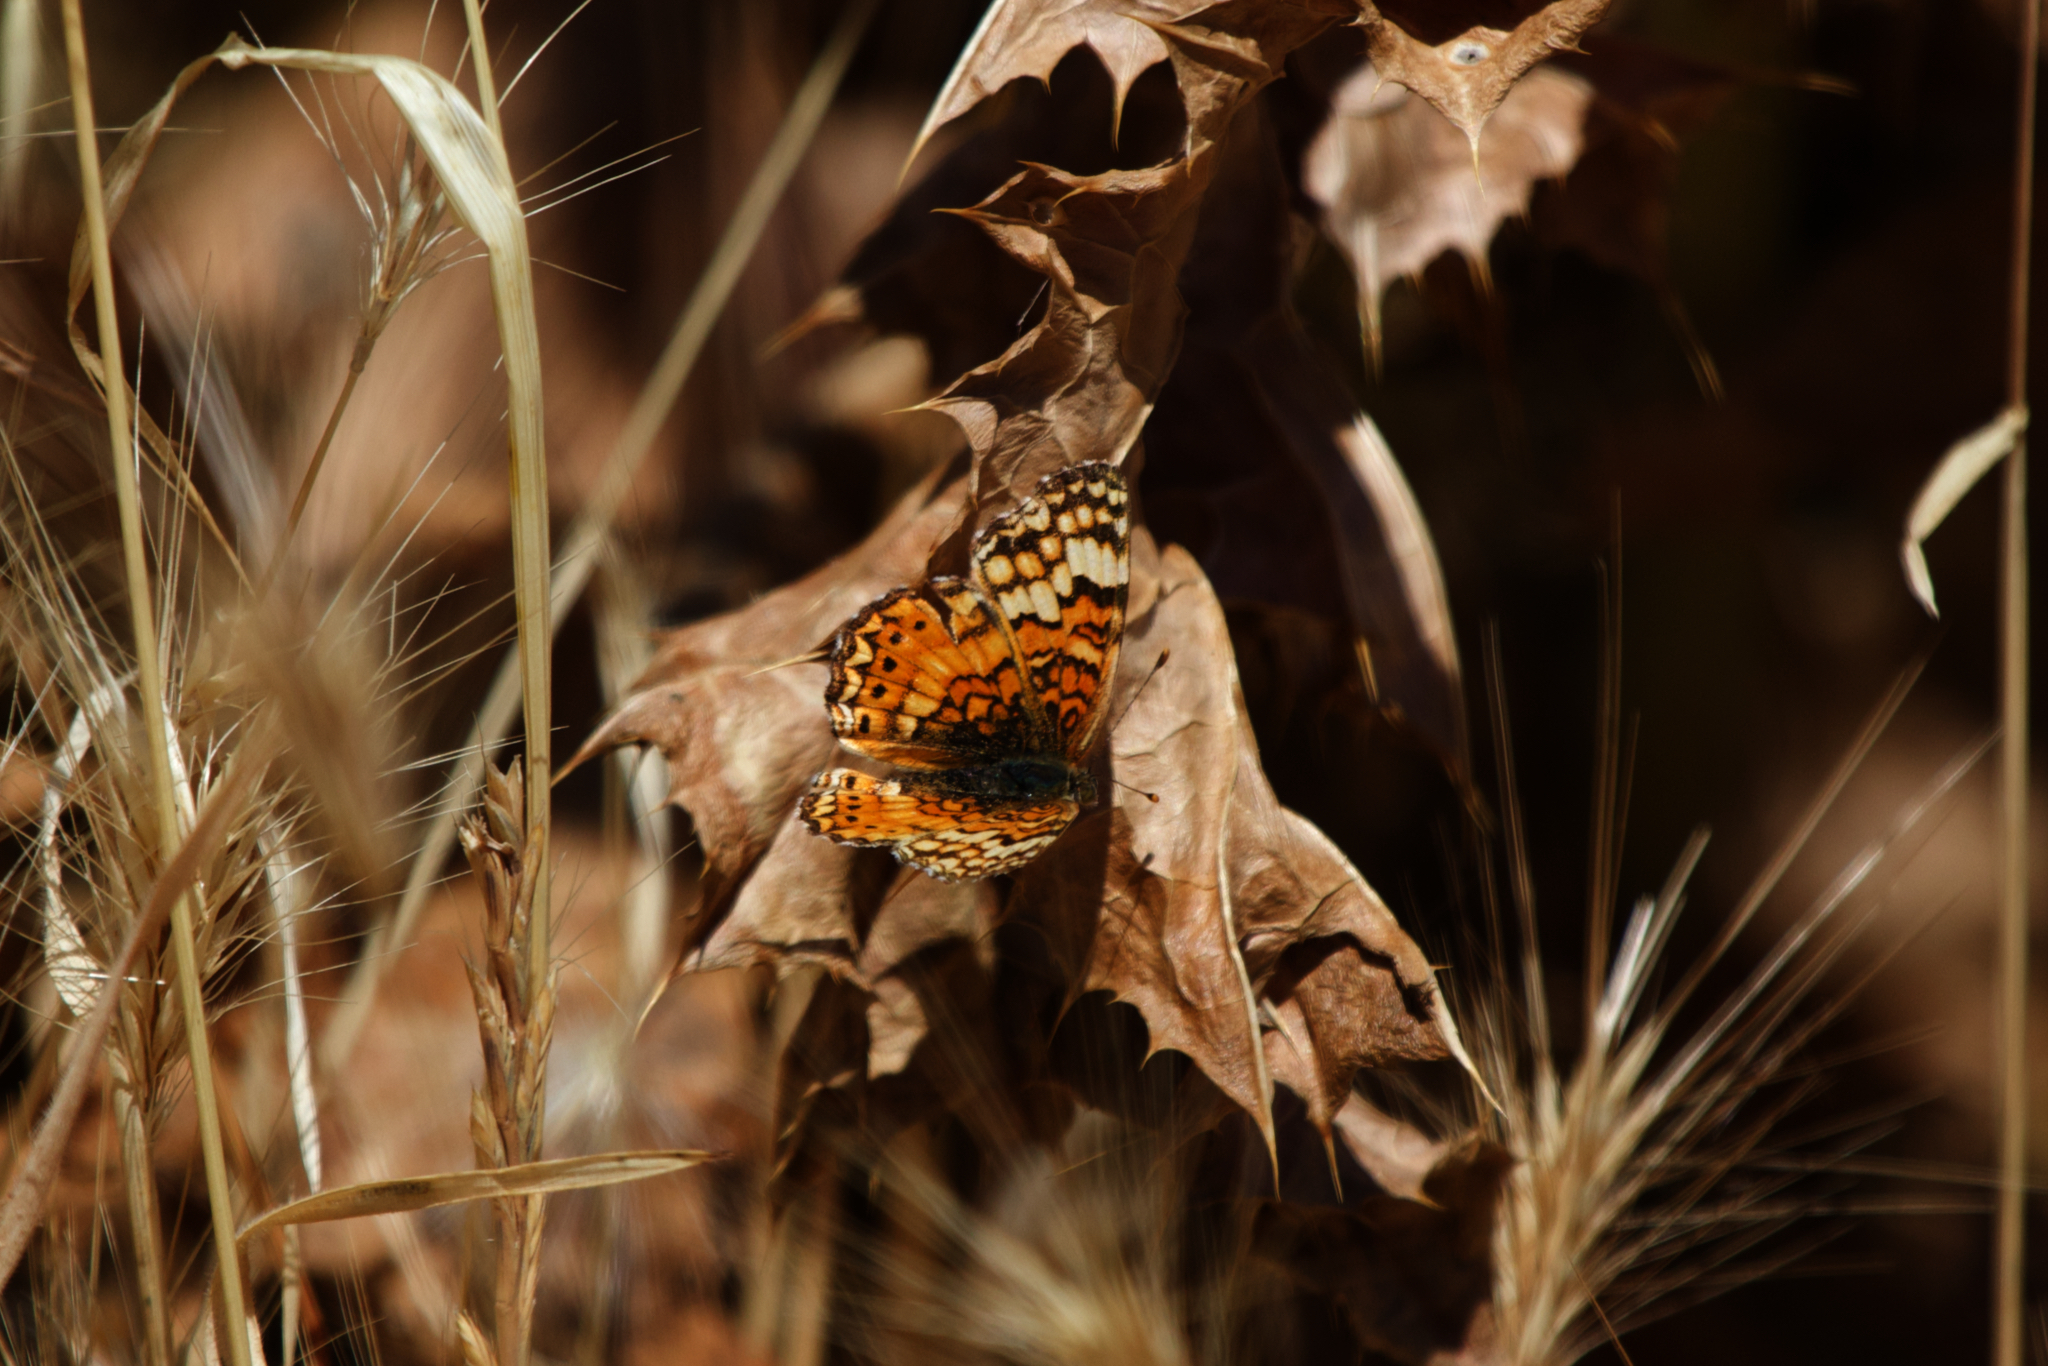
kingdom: Animalia
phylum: Arthropoda
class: Insecta
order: Lepidoptera
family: Nymphalidae
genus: Eresia
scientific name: Eresia aveyrona
